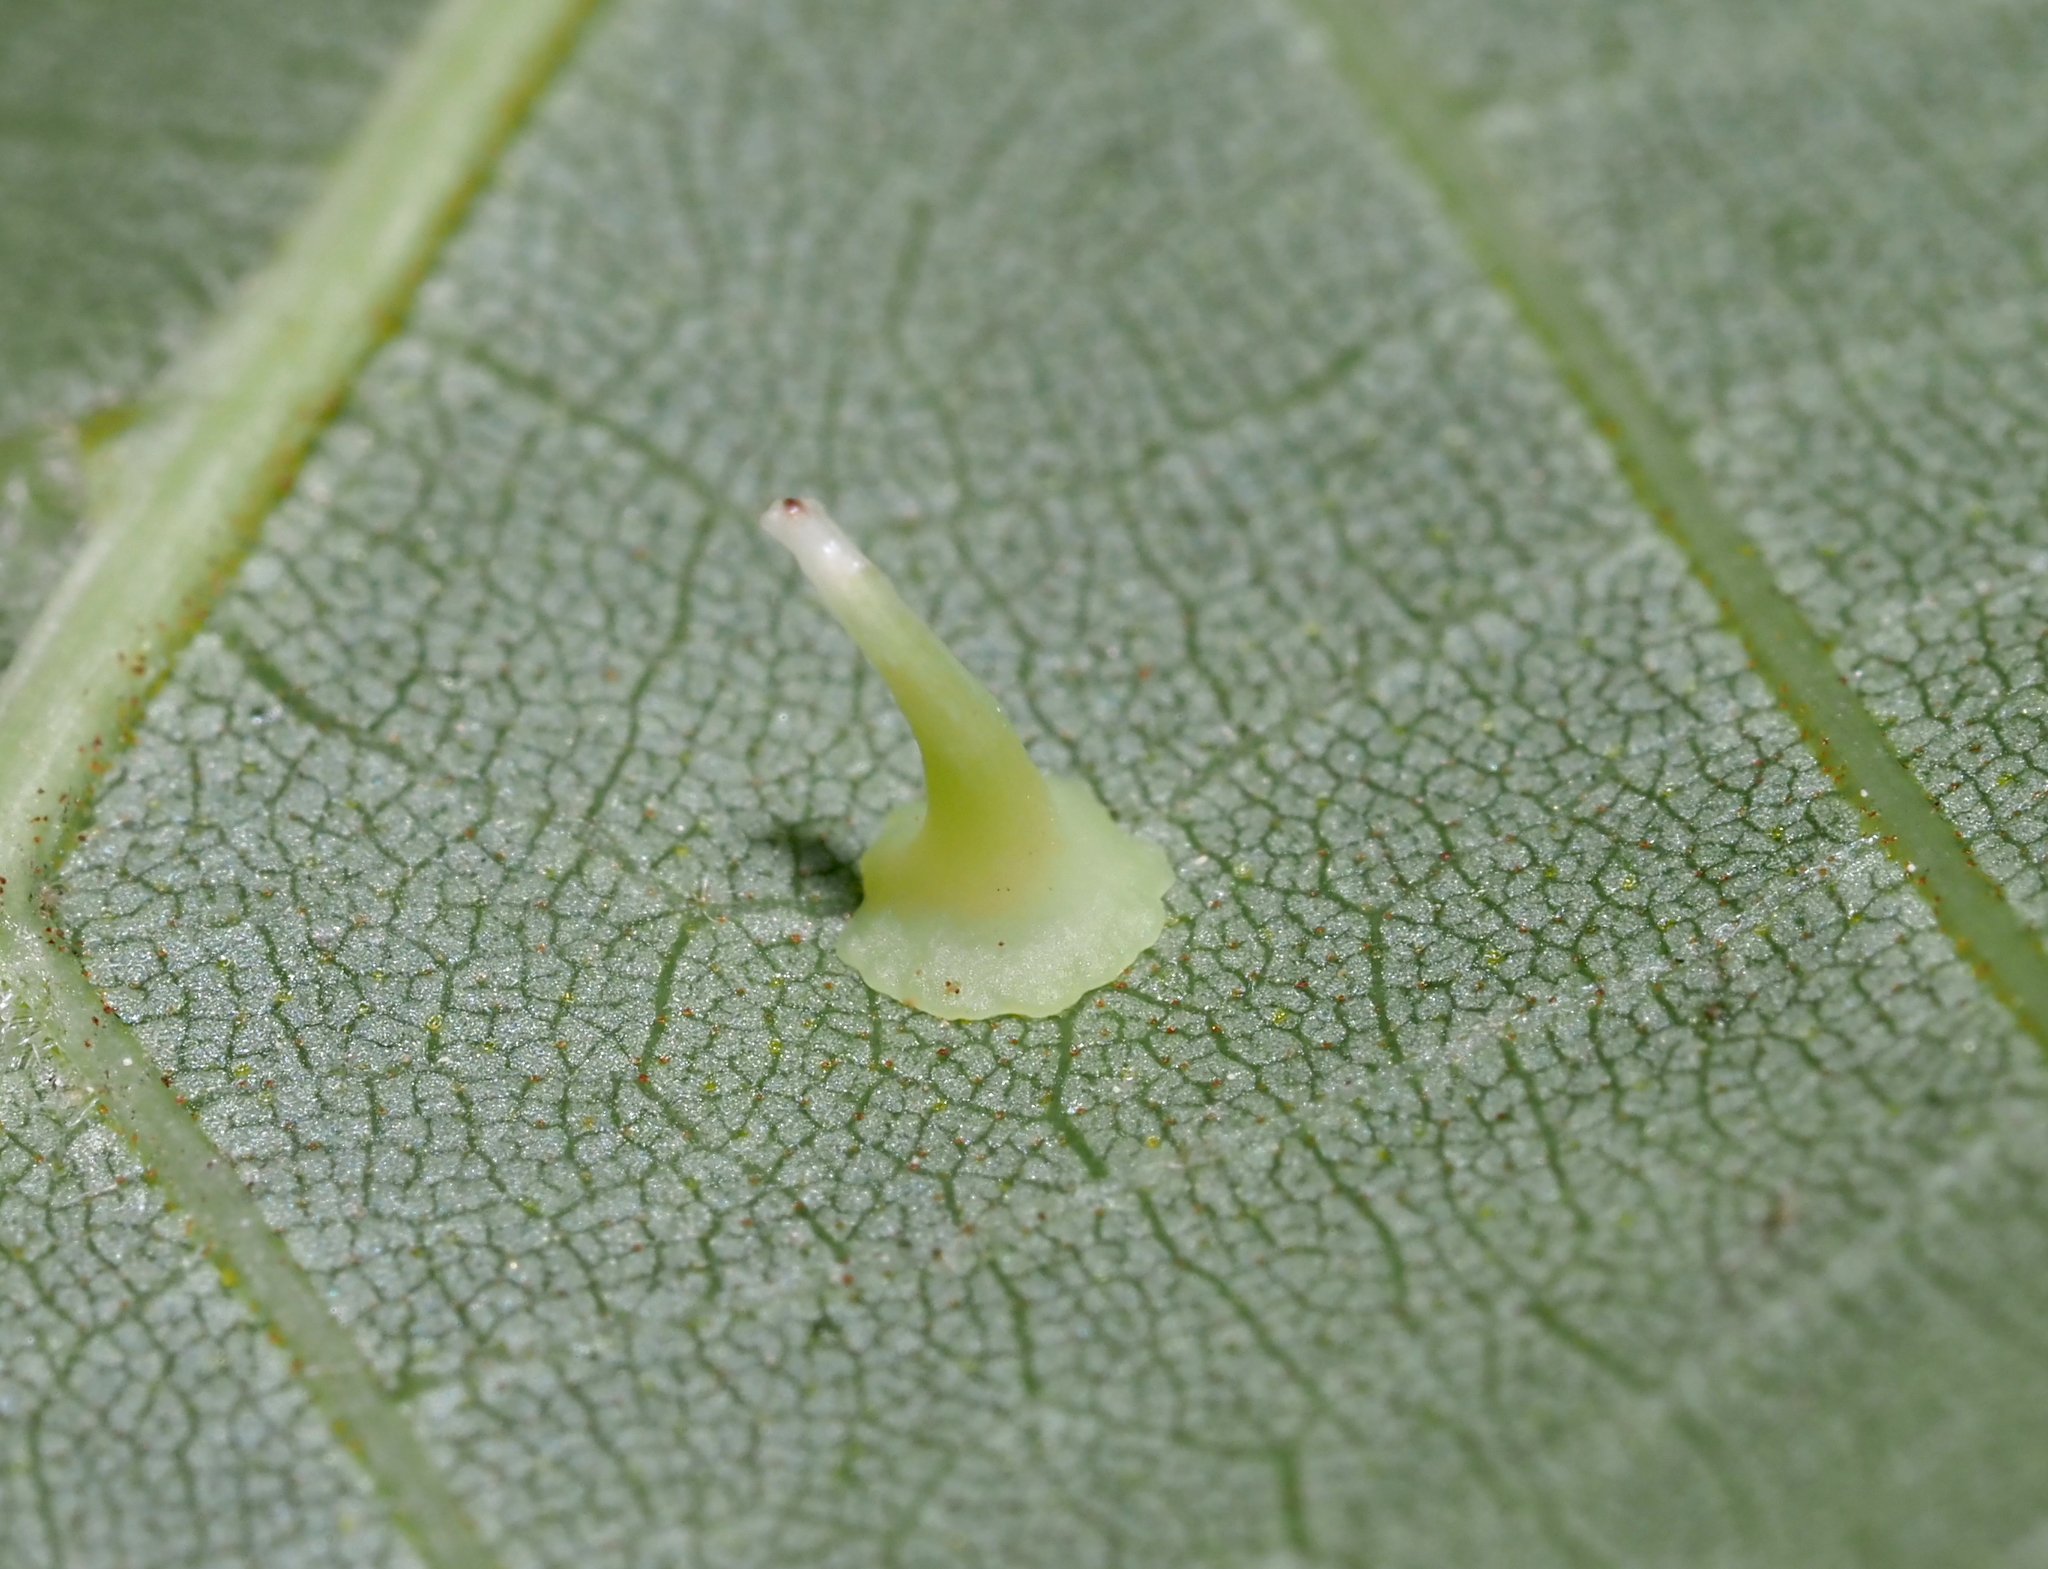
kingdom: Animalia
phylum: Arthropoda
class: Insecta
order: Diptera
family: Cecidomyiidae
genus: Caryomyia
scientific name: Caryomyia stellata
